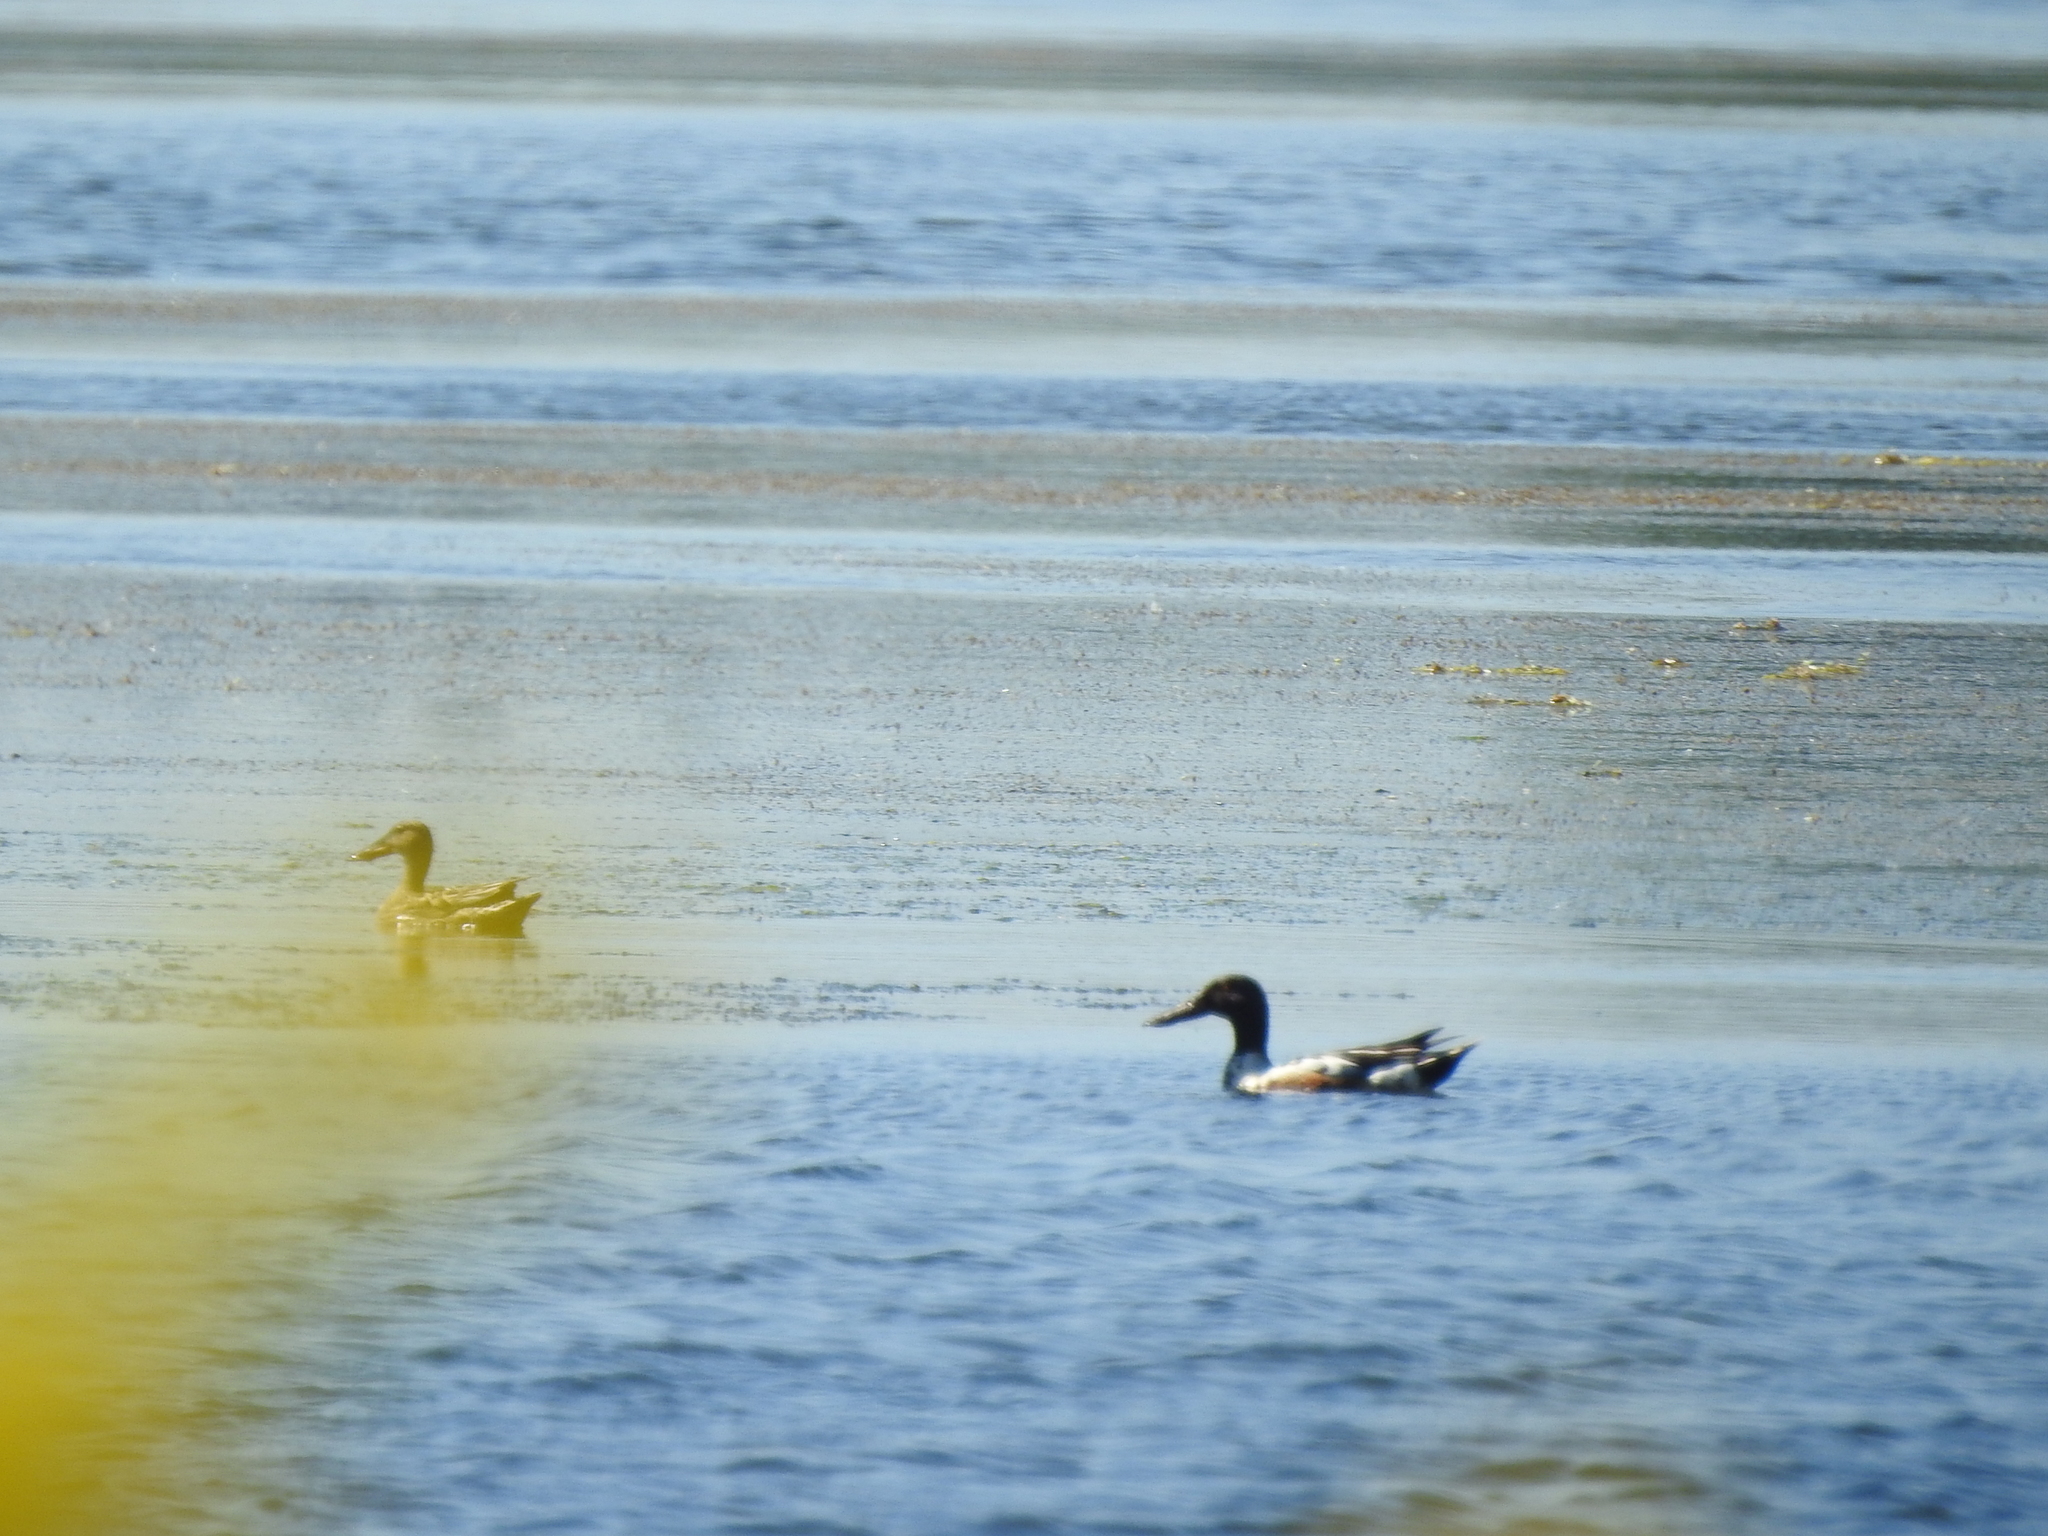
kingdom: Animalia
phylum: Chordata
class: Aves
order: Anseriformes
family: Anatidae
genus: Spatula
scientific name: Spatula clypeata
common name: Northern shoveler
